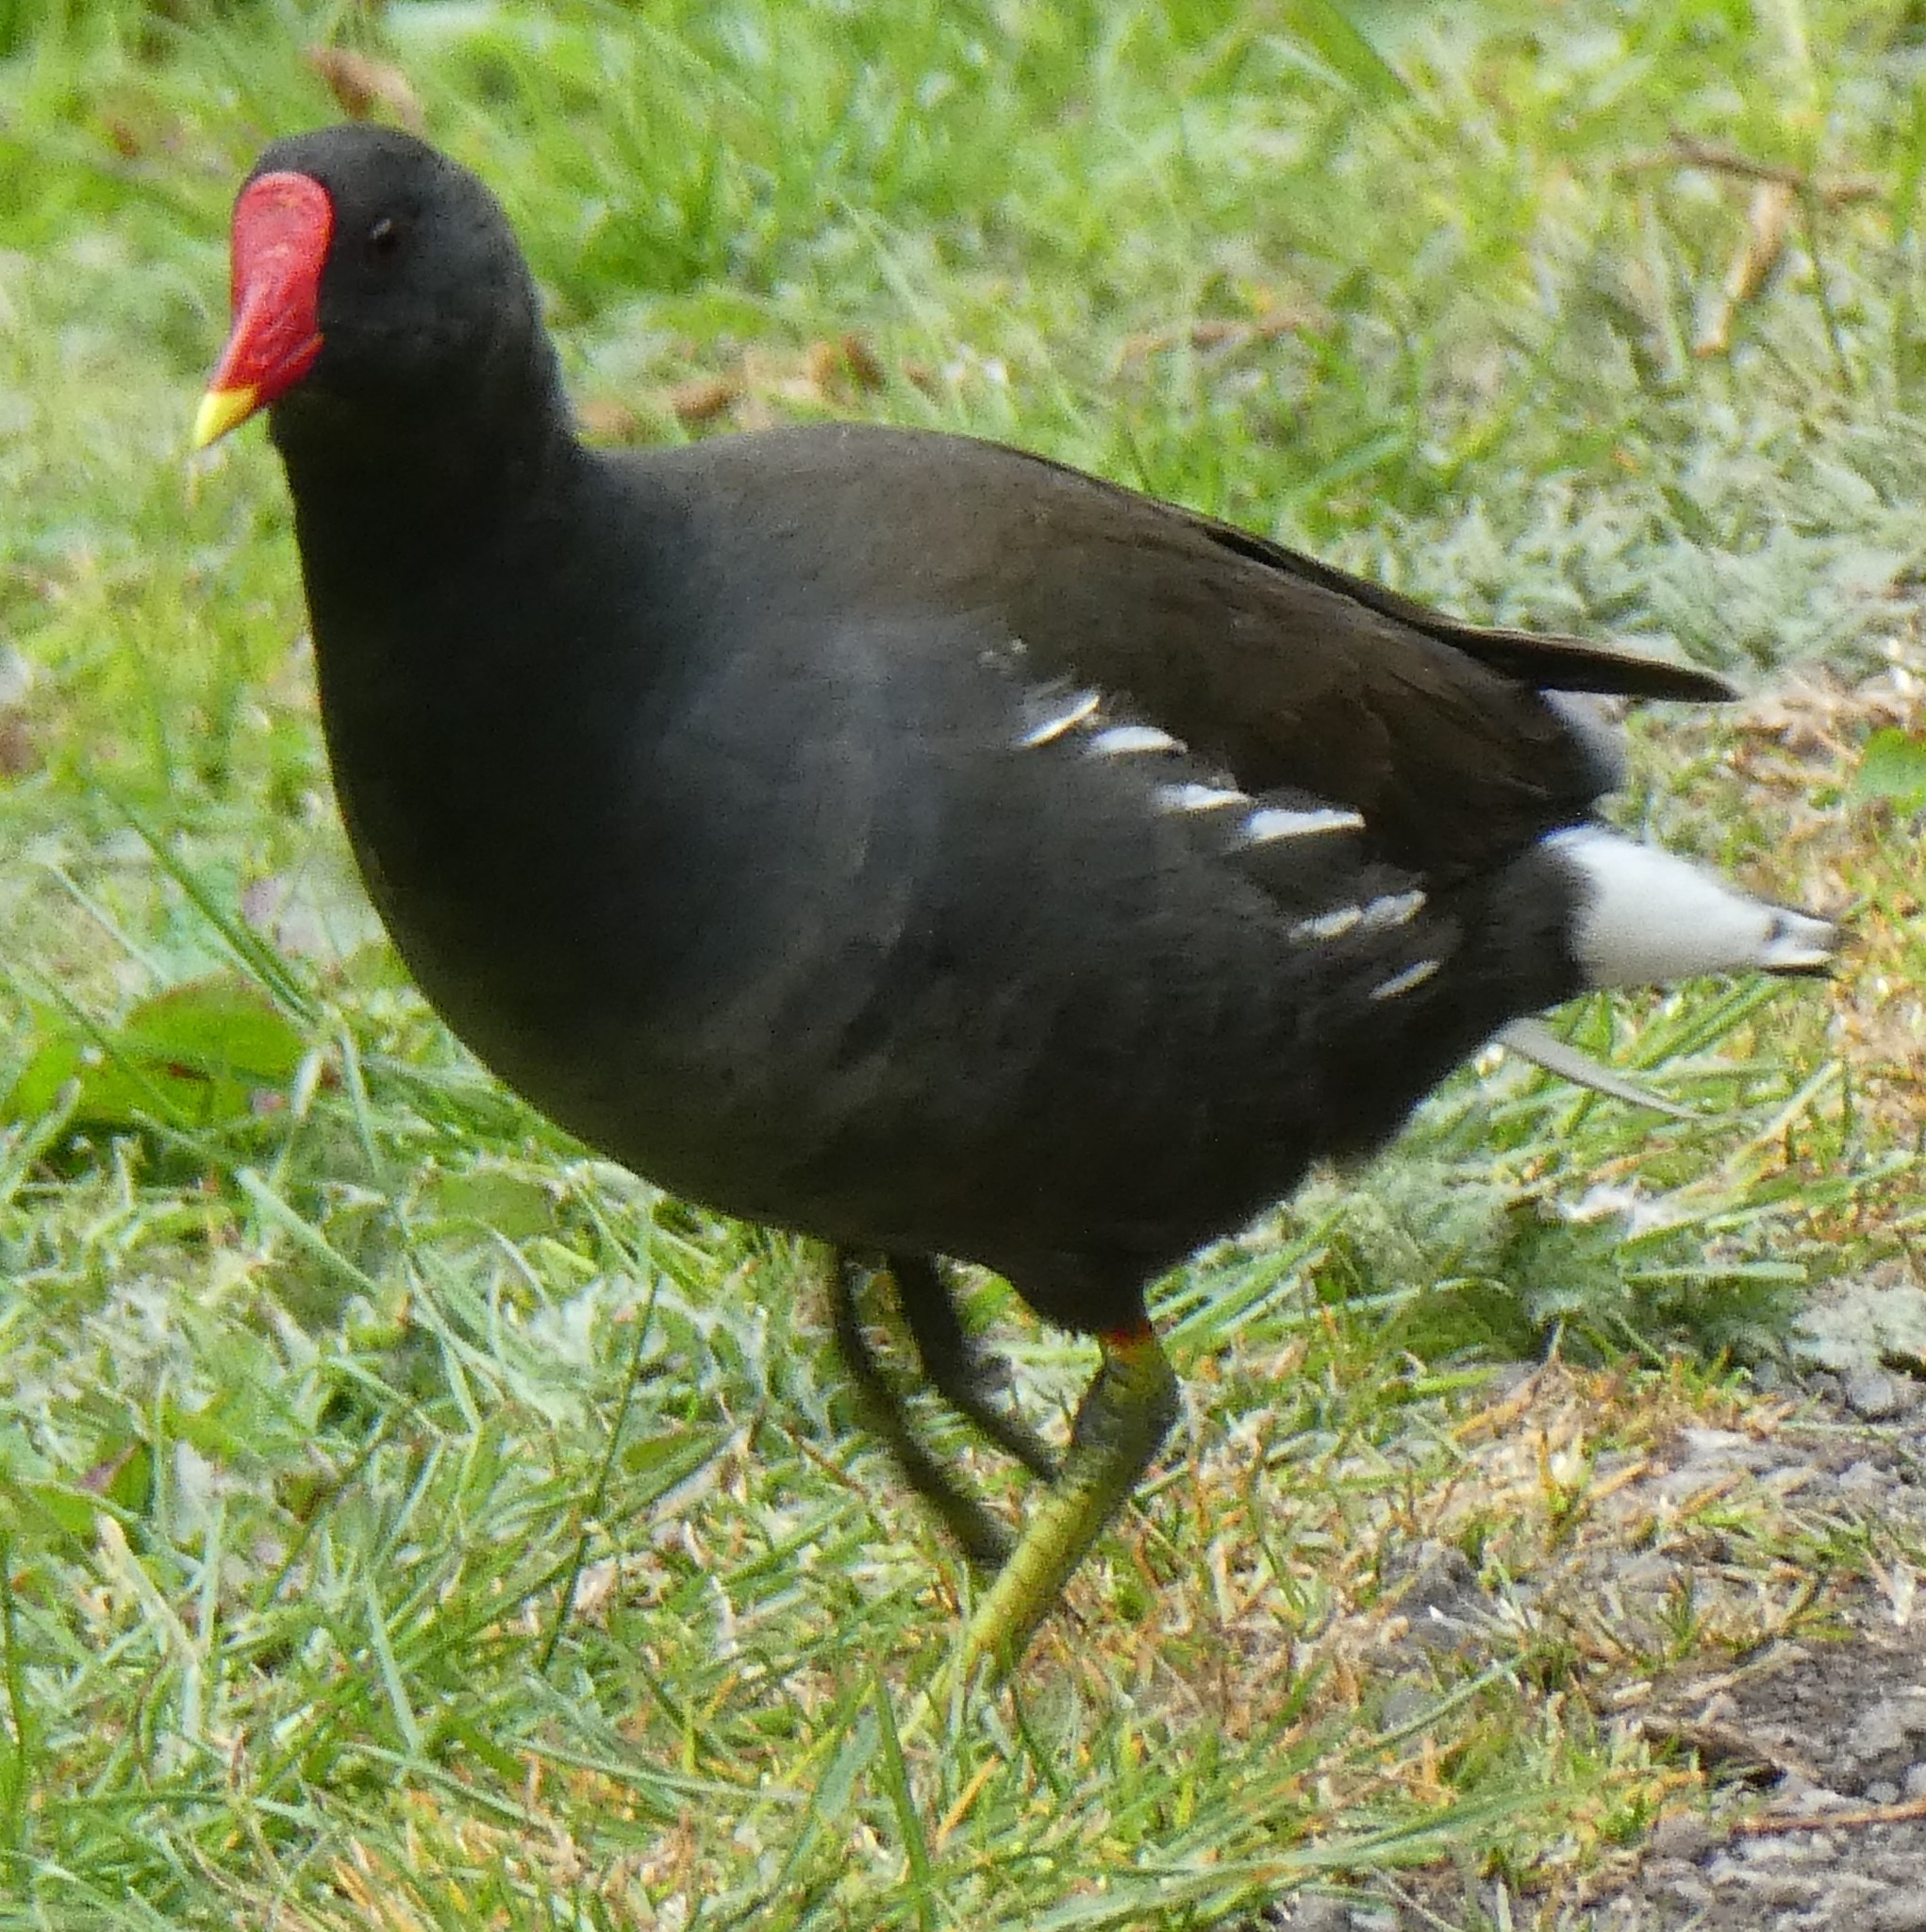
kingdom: Animalia
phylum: Chordata
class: Aves
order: Gruiformes
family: Rallidae
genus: Gallinula
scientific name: Gallinula chloropus
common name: Common moorhen
